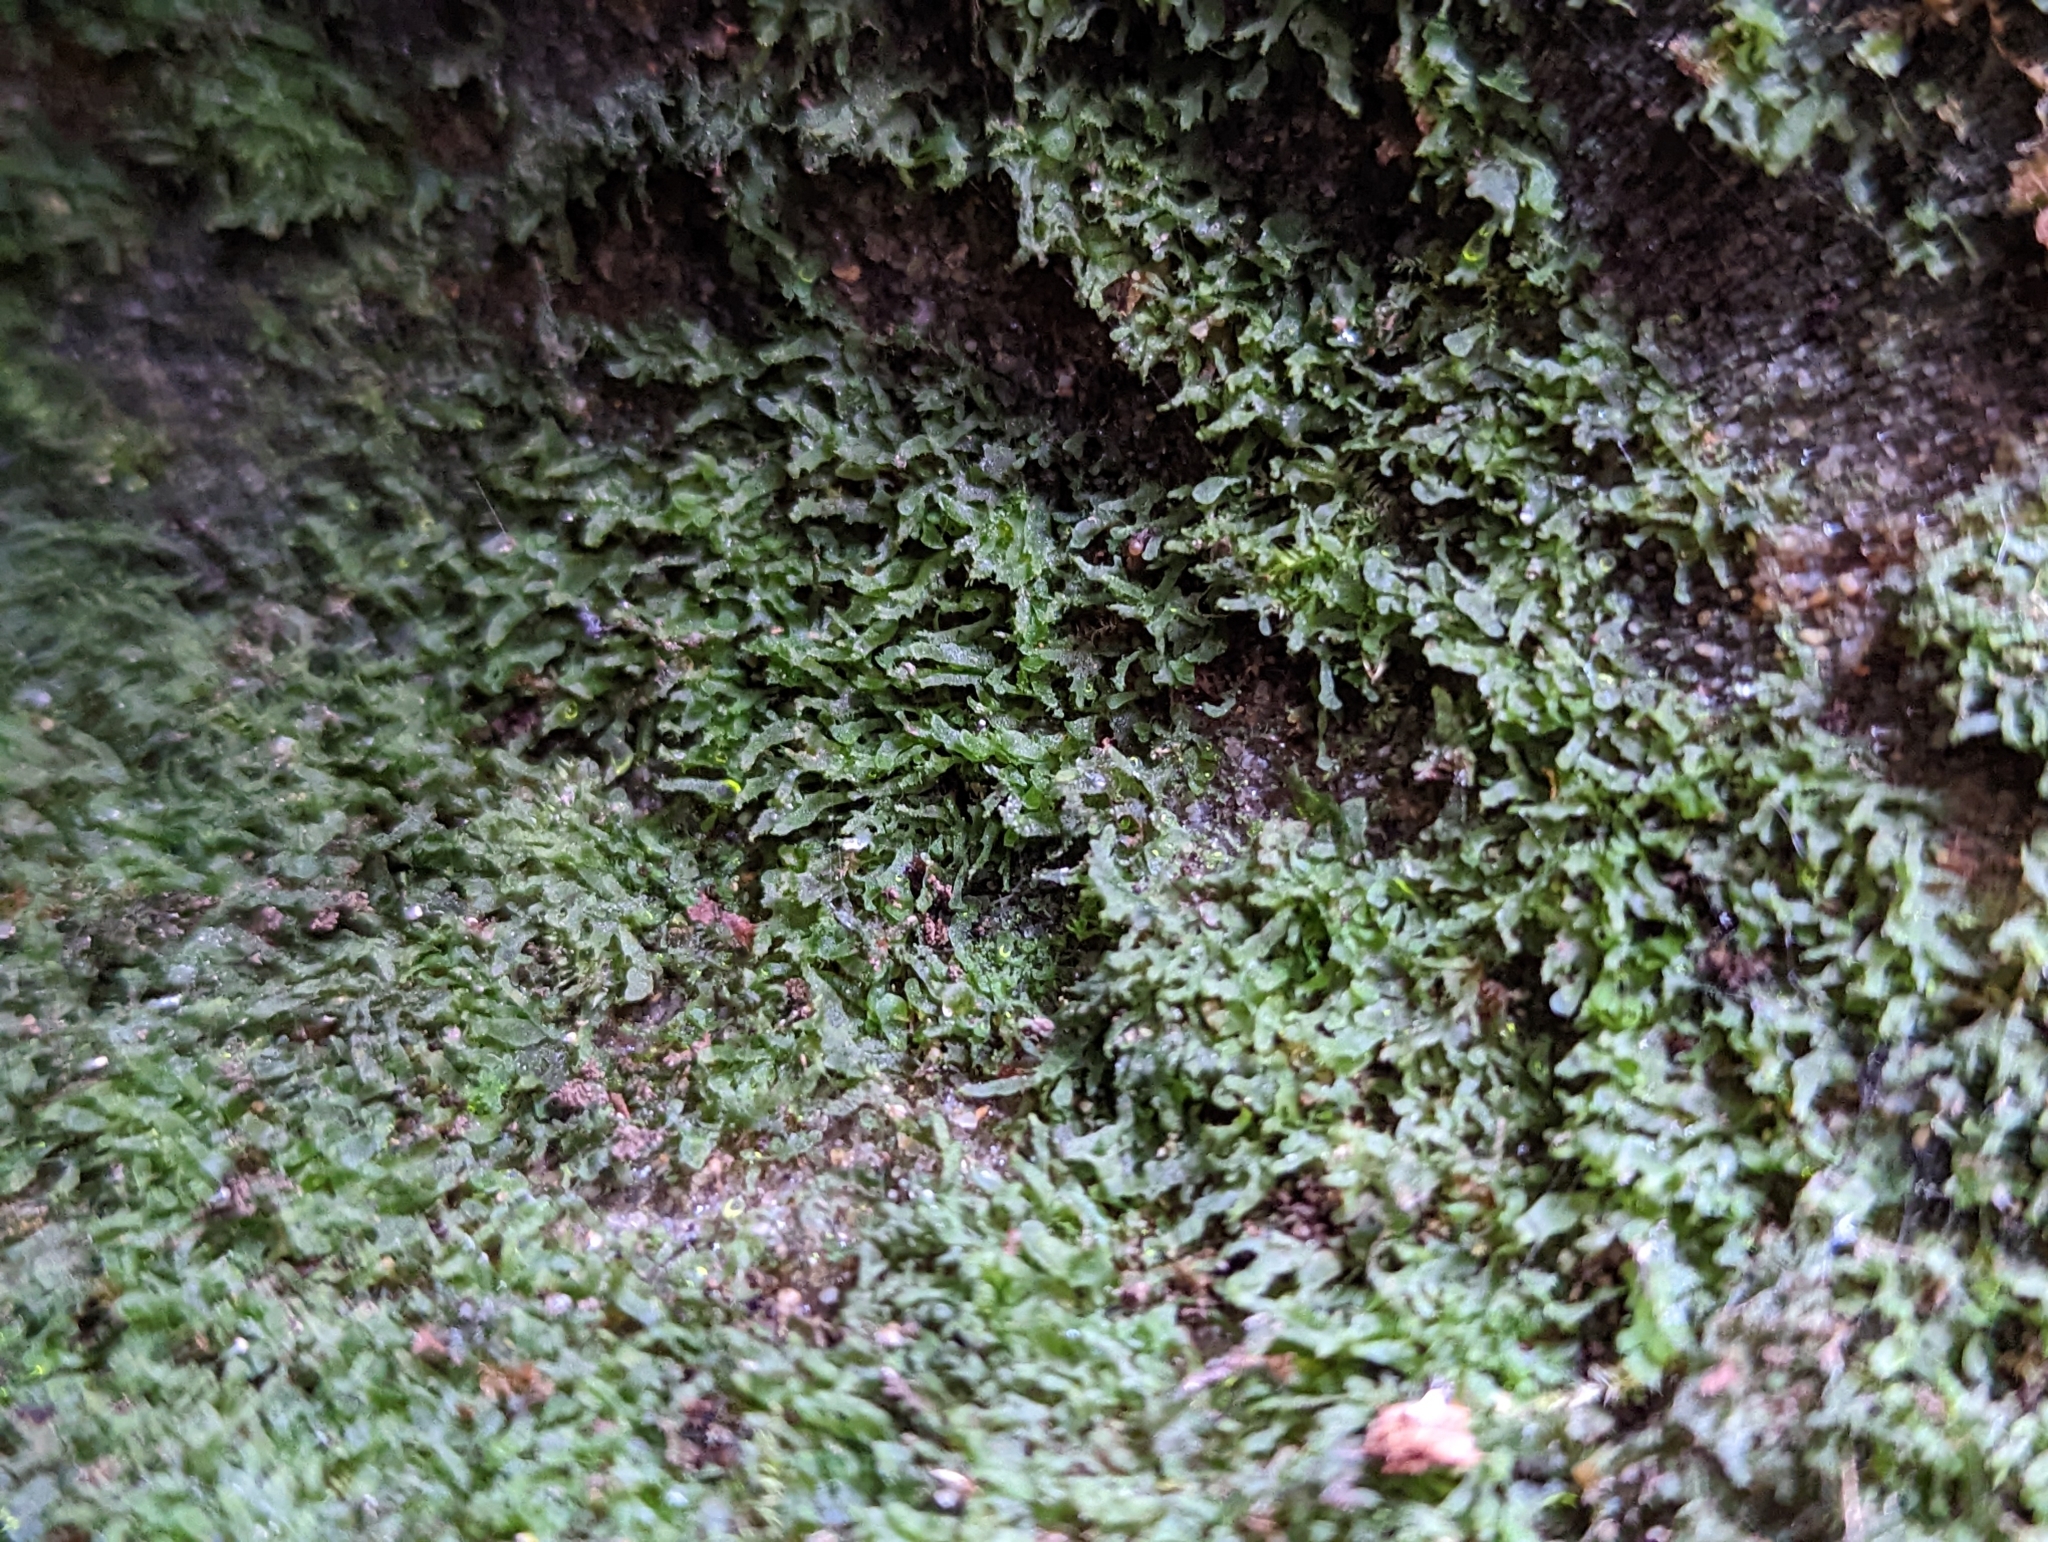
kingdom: Plantae
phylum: Tracheophyta
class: Polypodiopsida
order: Polypodiales
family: Pteridaceae
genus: Vittaria
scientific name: Vittaria appalachiana
